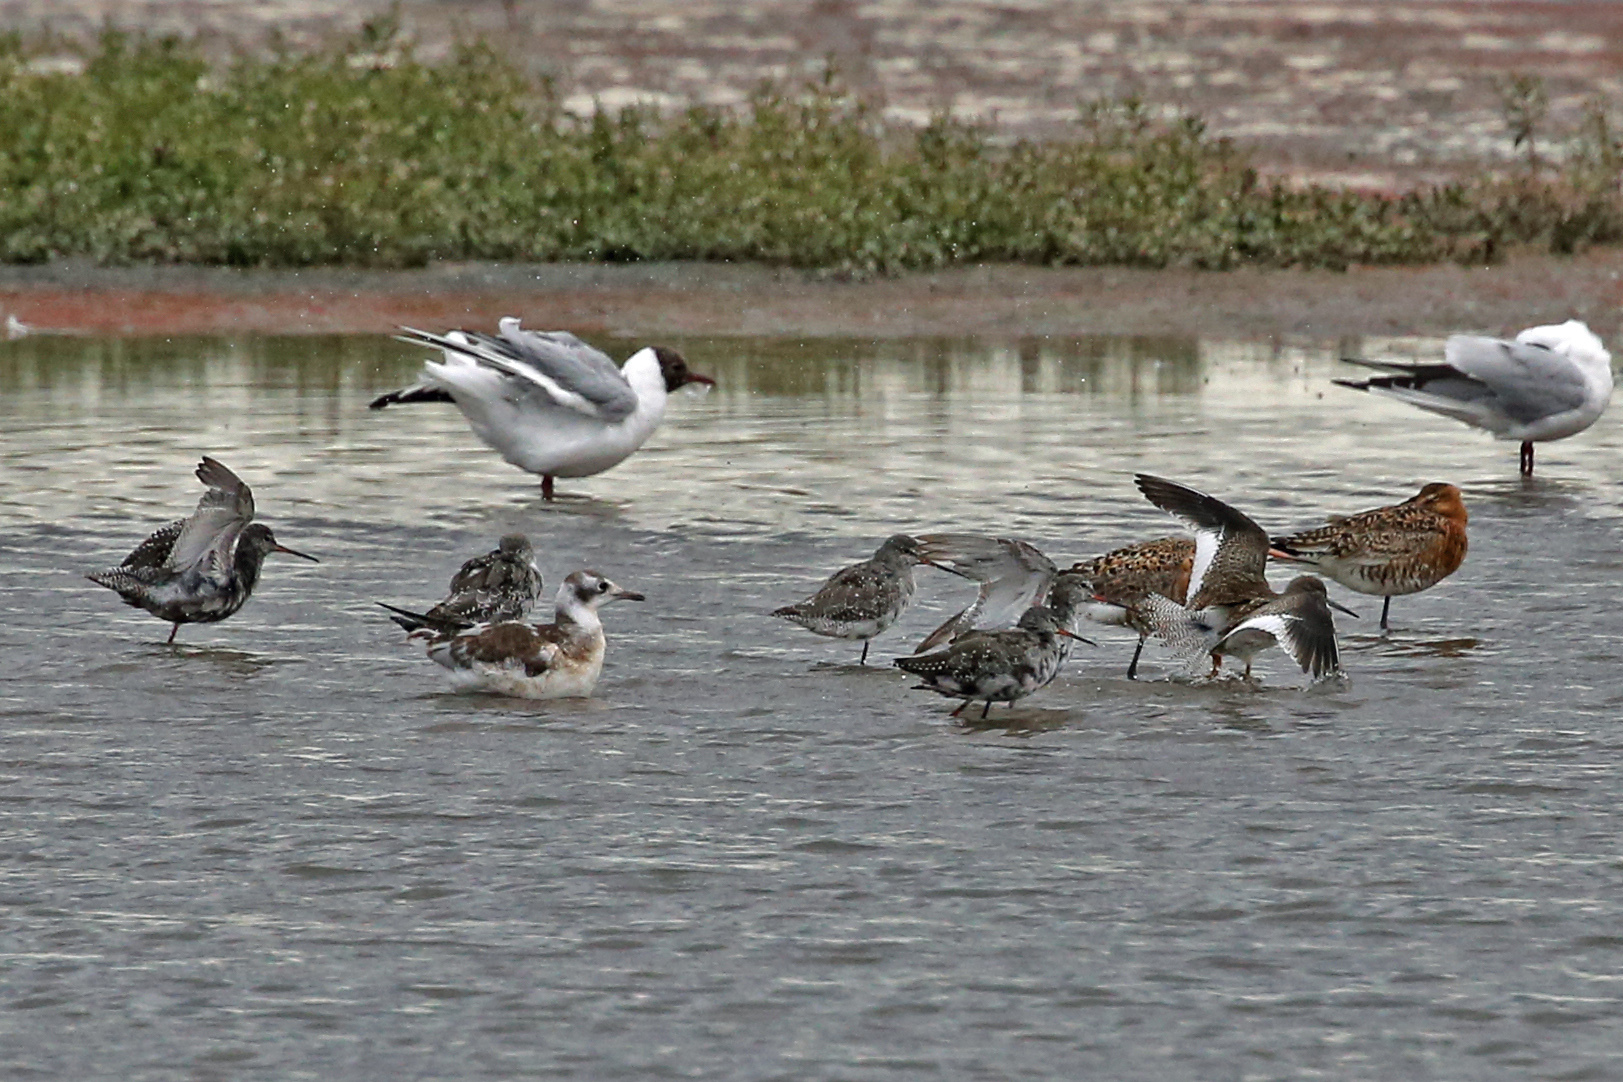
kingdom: Animalia
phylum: Chordata
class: Aves
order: Charadriiformes
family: Scolopacidae
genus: Tringa
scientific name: Tringa erythropus
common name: Spotted redshank
